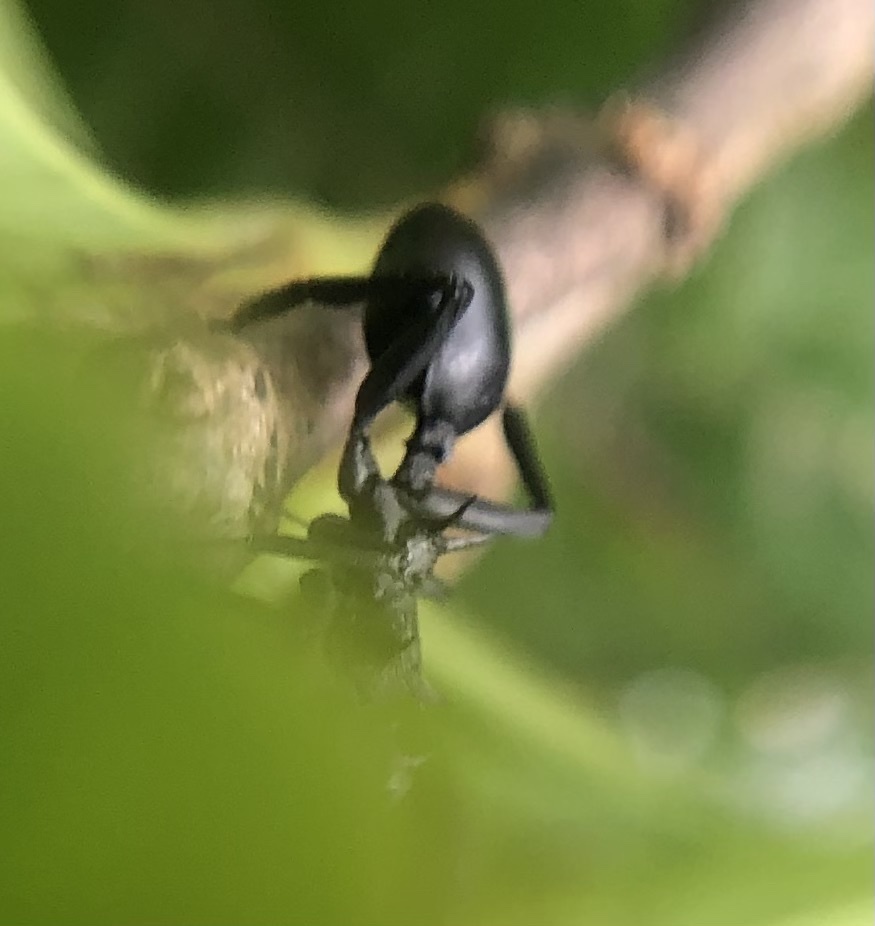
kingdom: Animalia
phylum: Arthropoda
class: Insecta
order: Hymenoptera
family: Formicidae
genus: Cephalotes
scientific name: Cephalotes atratus
